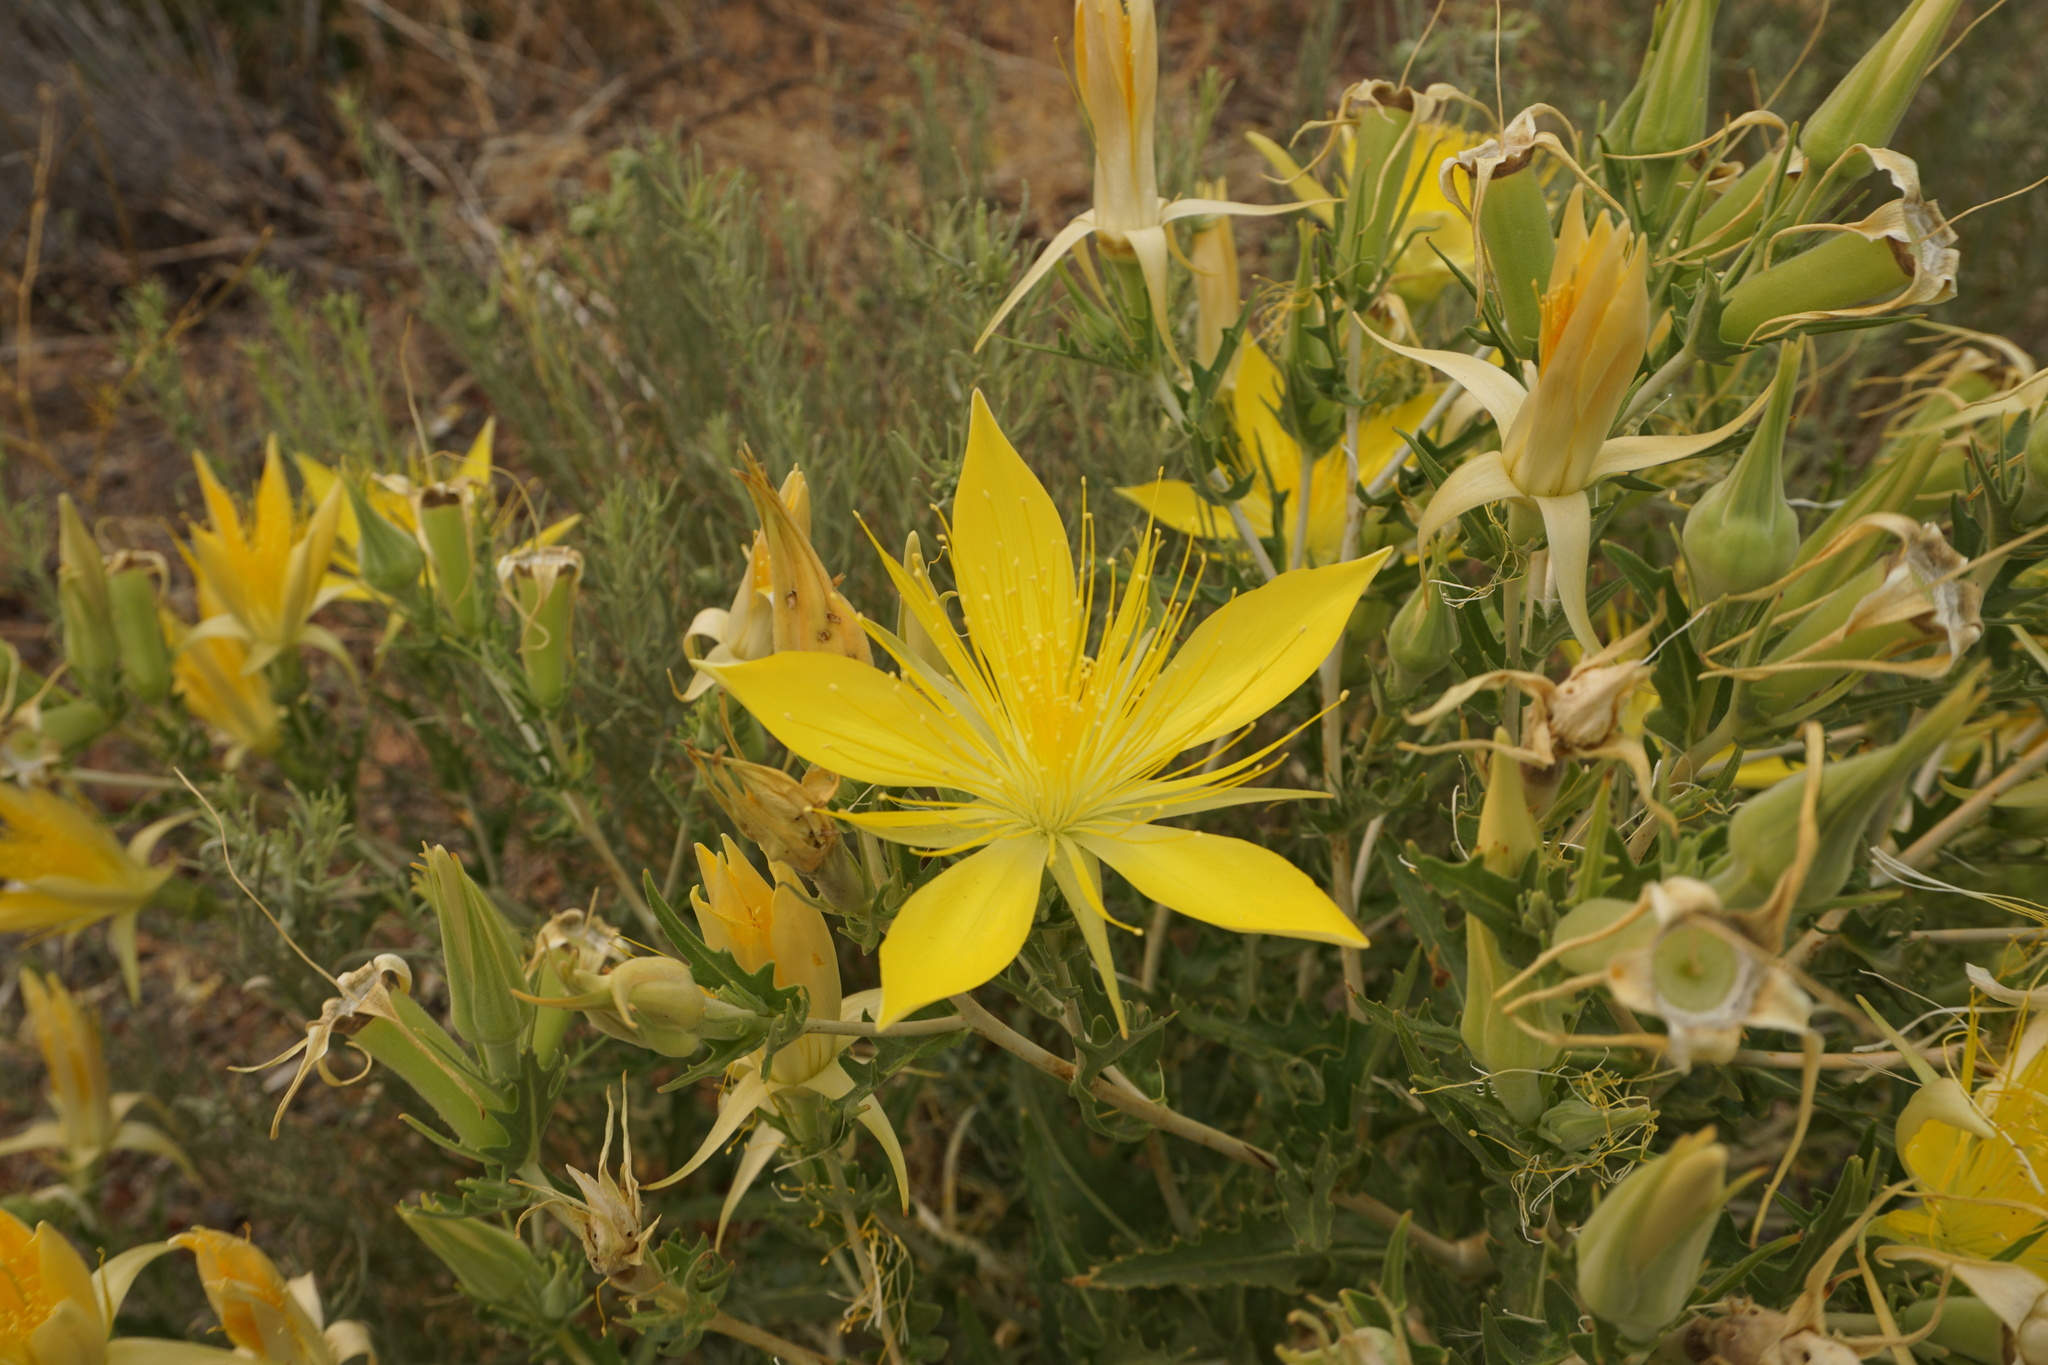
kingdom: Plantae
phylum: Tracheophyta
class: Magnoliopsida
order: Cornales
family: Loasaceae
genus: Mentzelia
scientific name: Mentzelia laevicaulis
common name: Smooth-stem blazingstar
